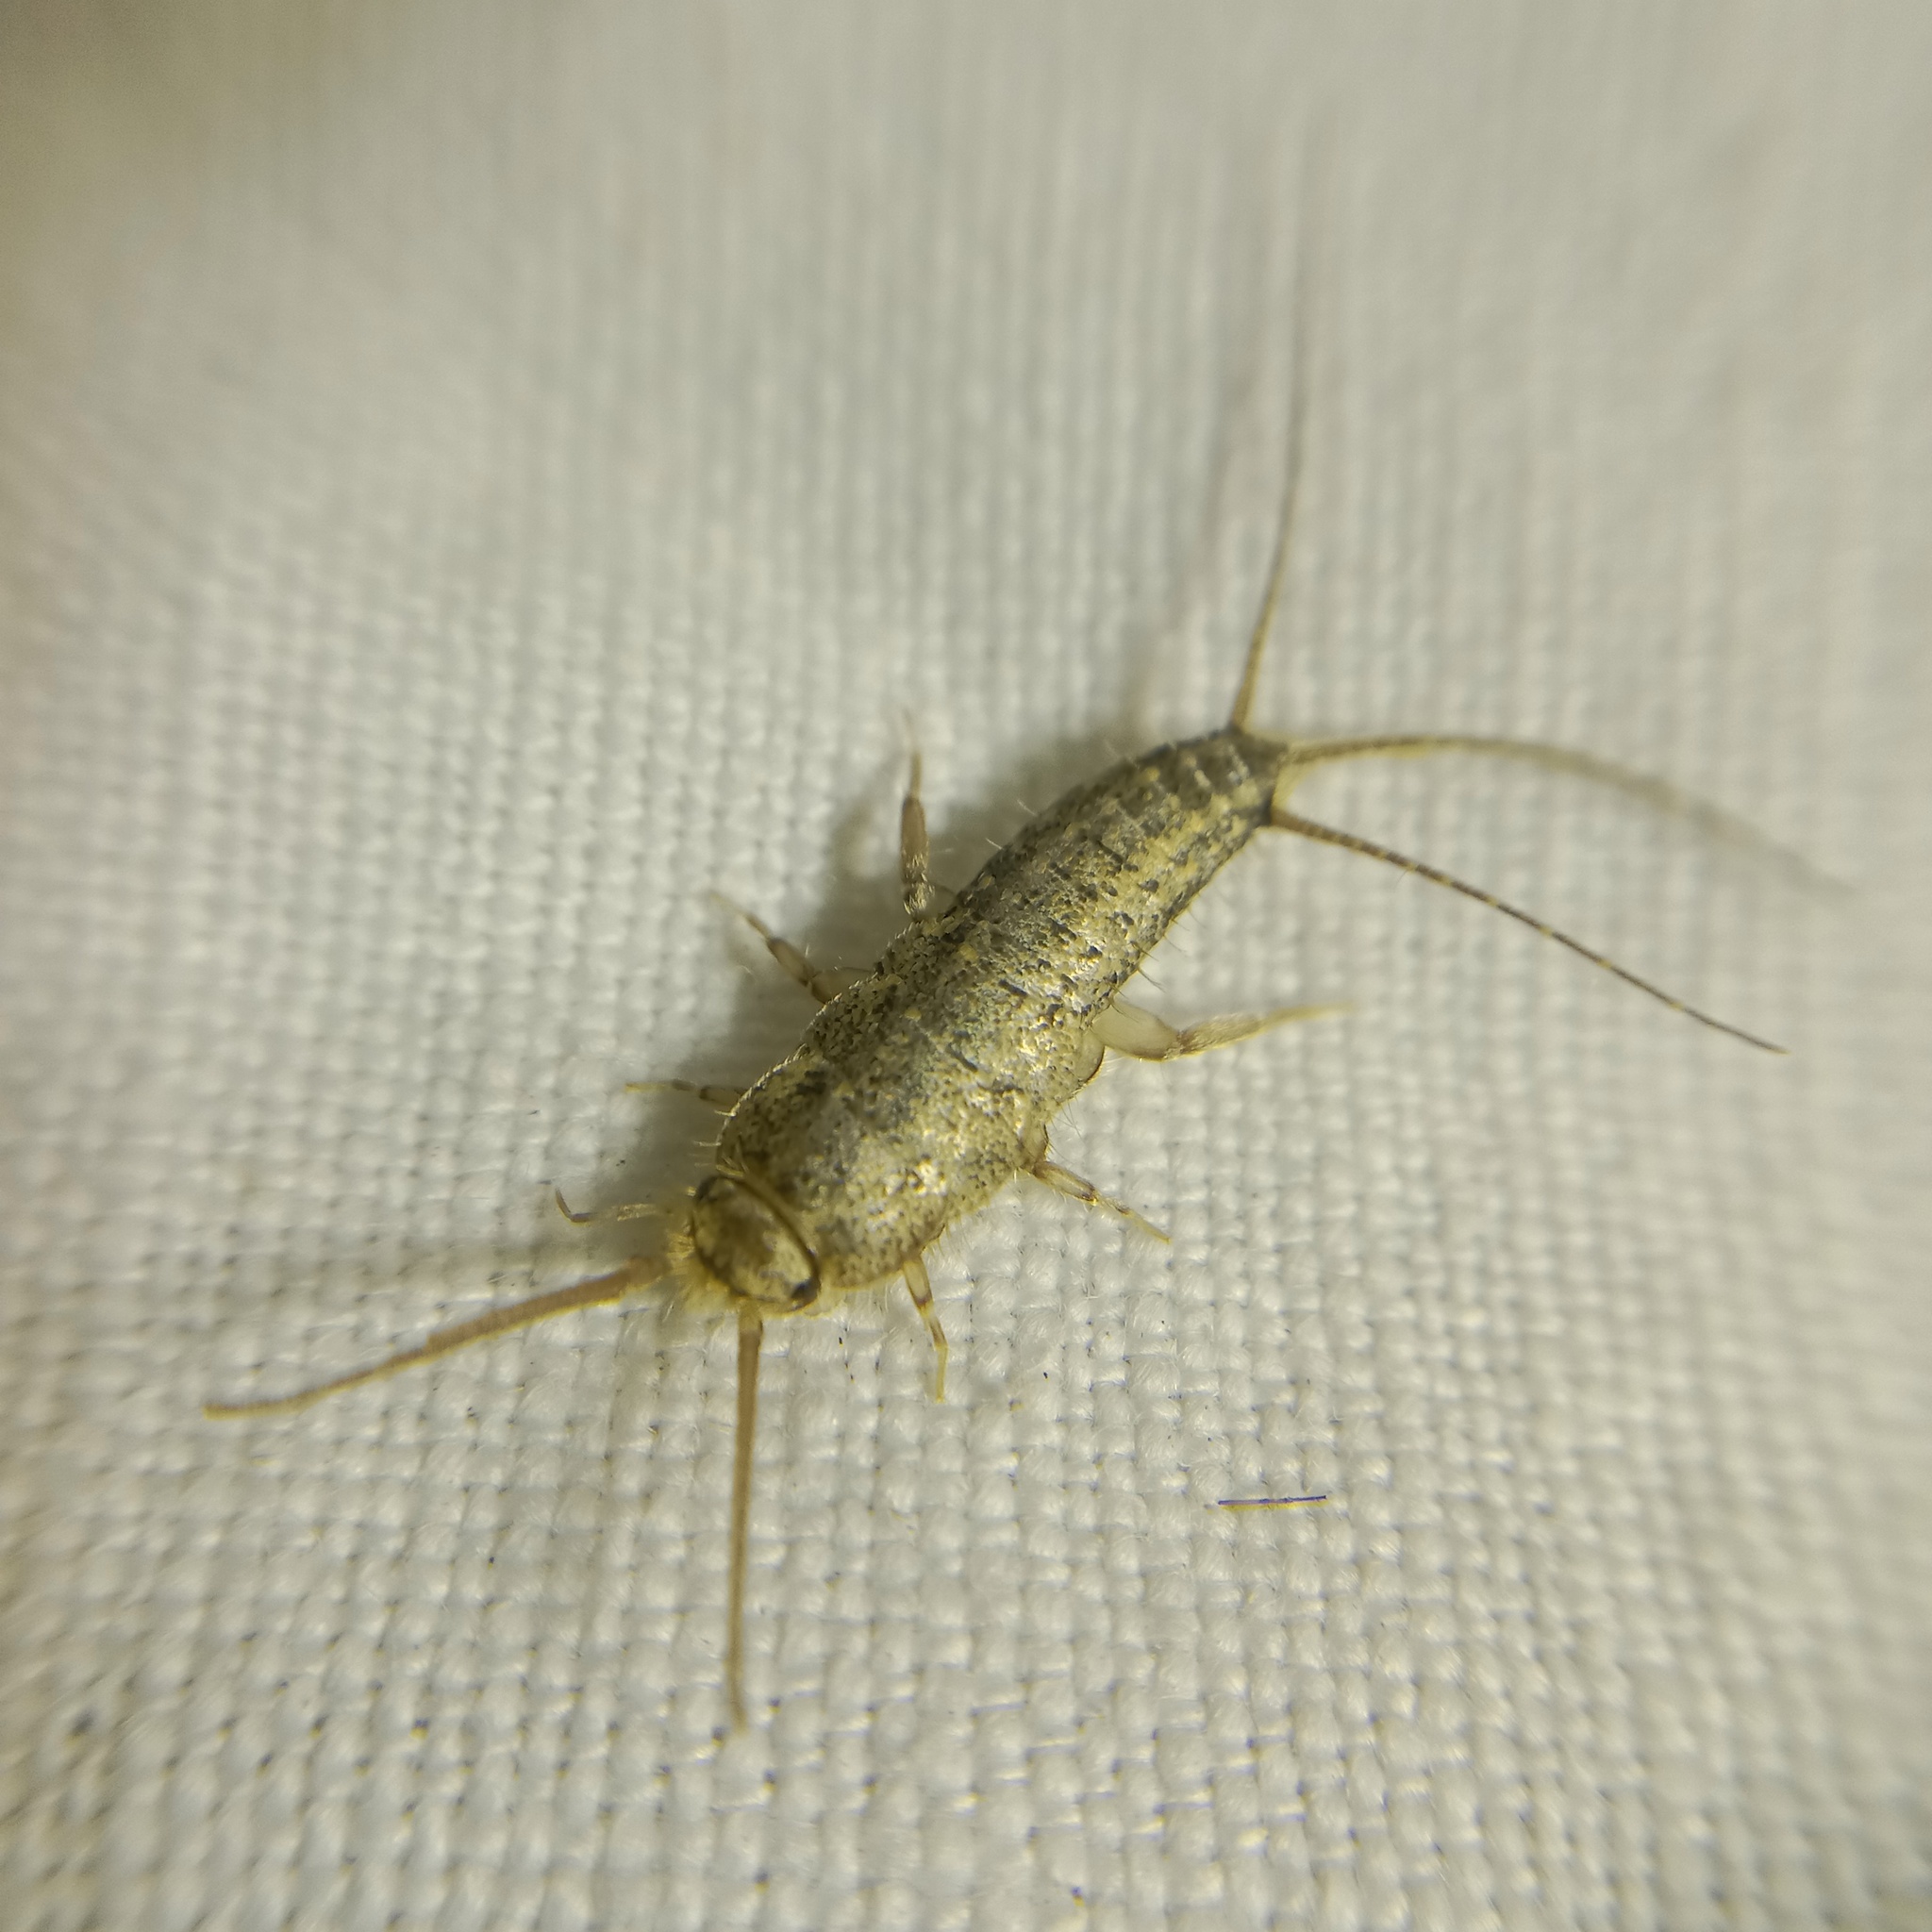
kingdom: Animalia
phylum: Arthropoda
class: Insecta
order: Zygentoma
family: Lepismatidae
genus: Ctenolepisma
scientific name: Ctenolepisma lineata
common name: Four-lined silverfish
